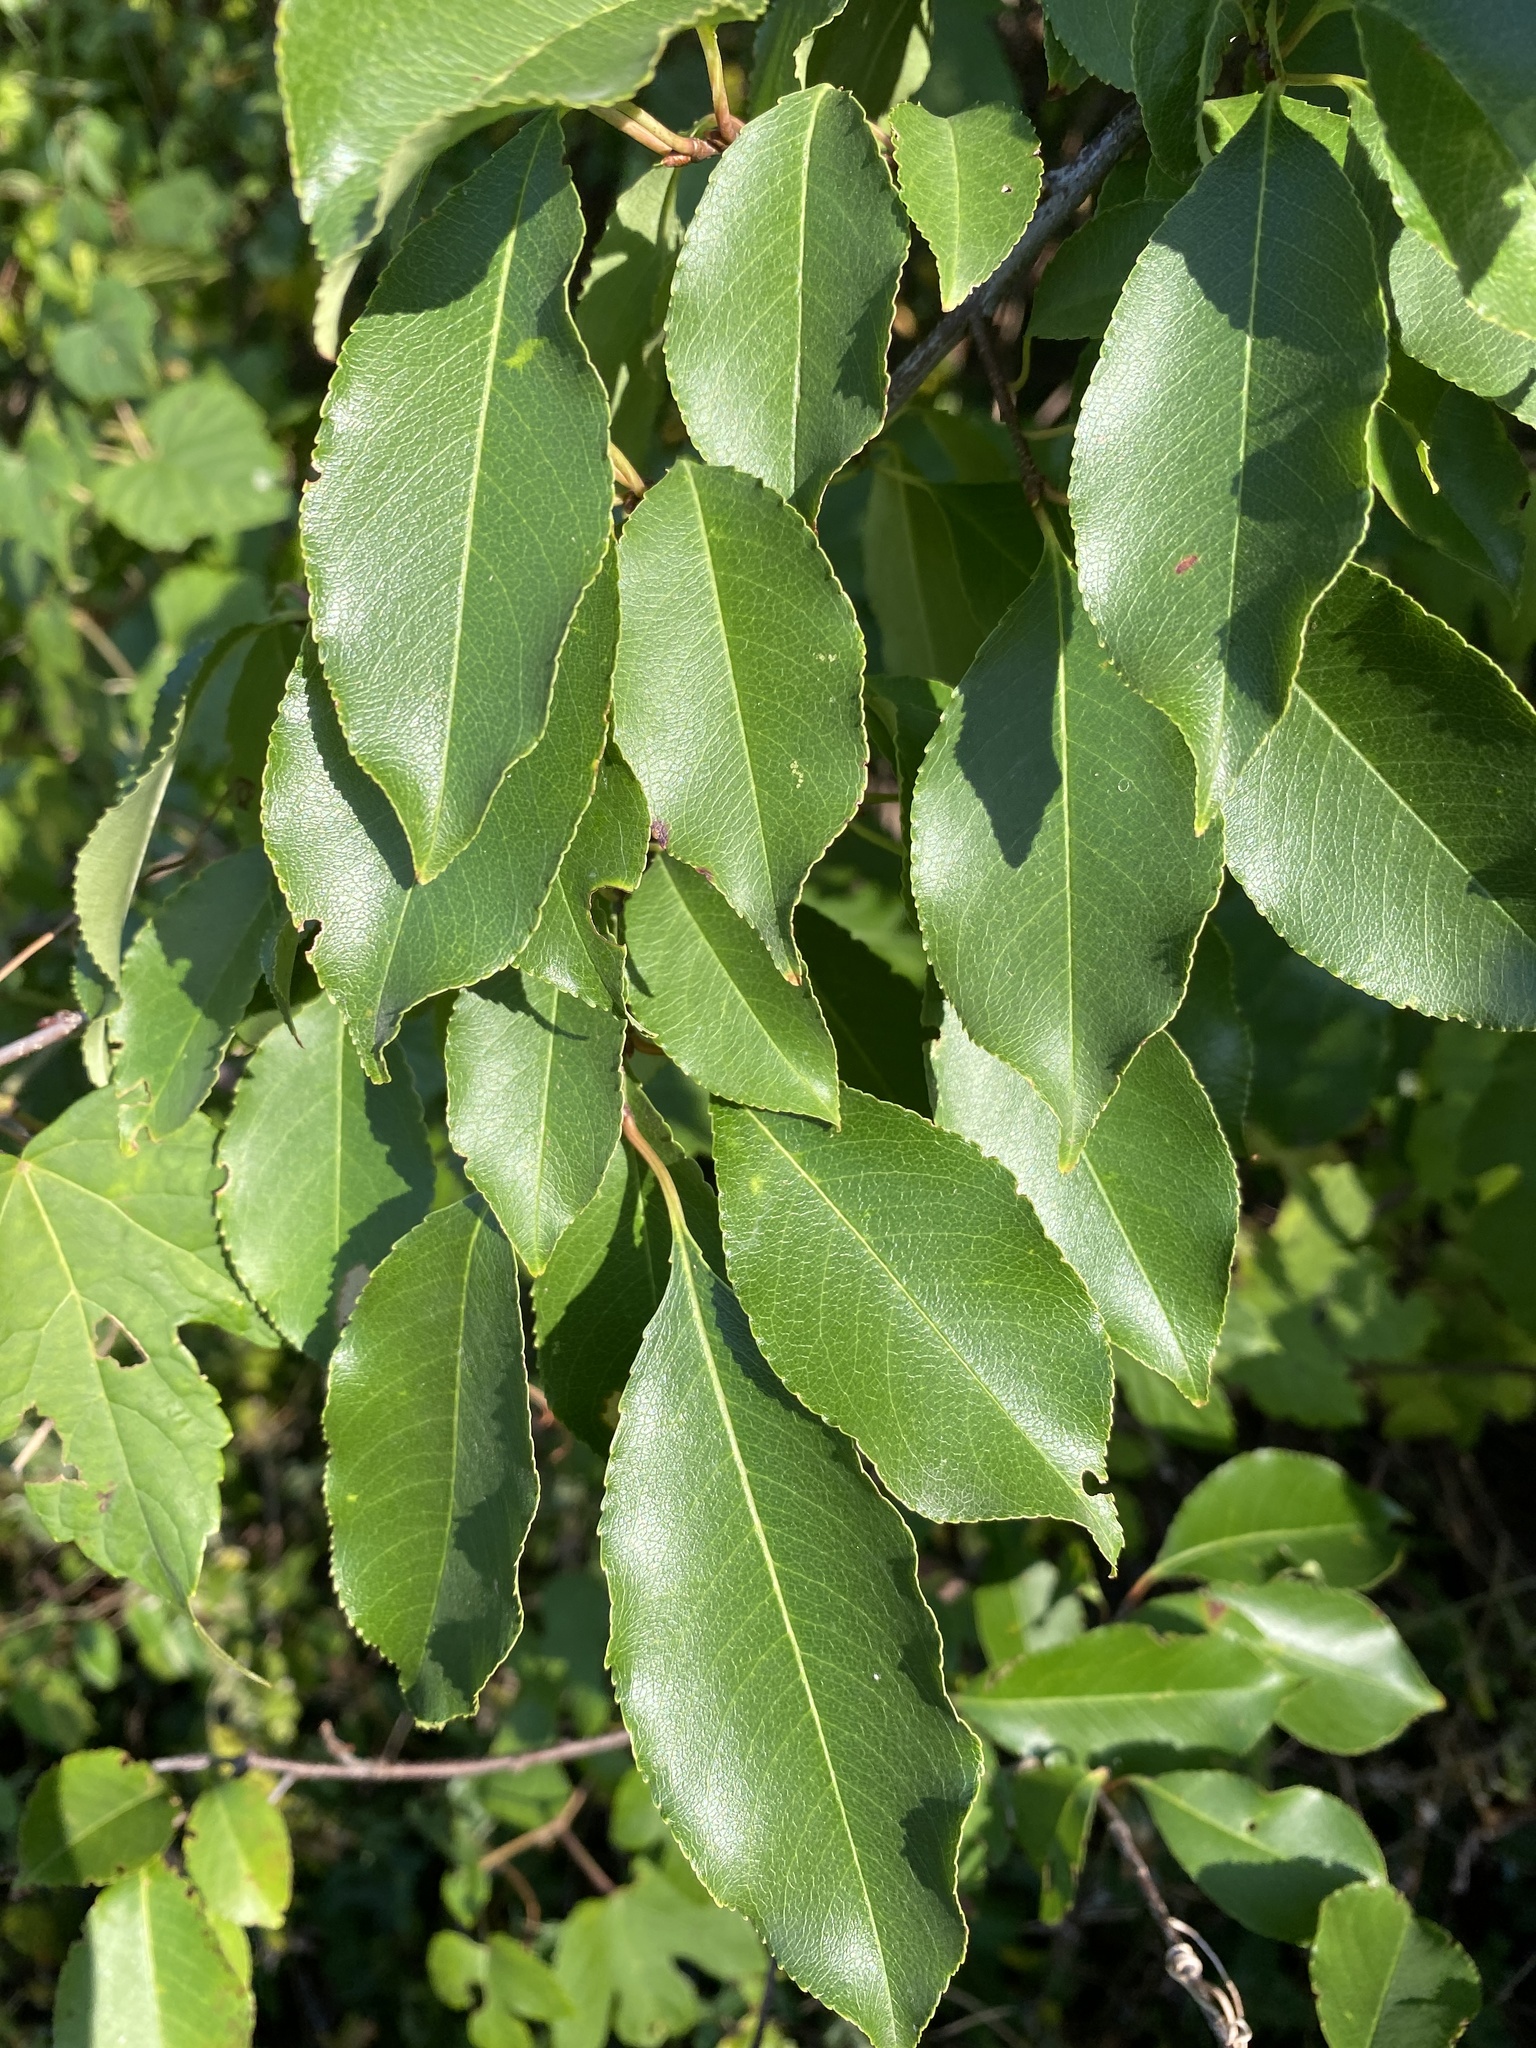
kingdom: Plantae
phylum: Tracheophyta
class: Magnoliopsida
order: Rosales
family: Rosaceae
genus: Prunus
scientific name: Prunus serotina
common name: Black cherry
